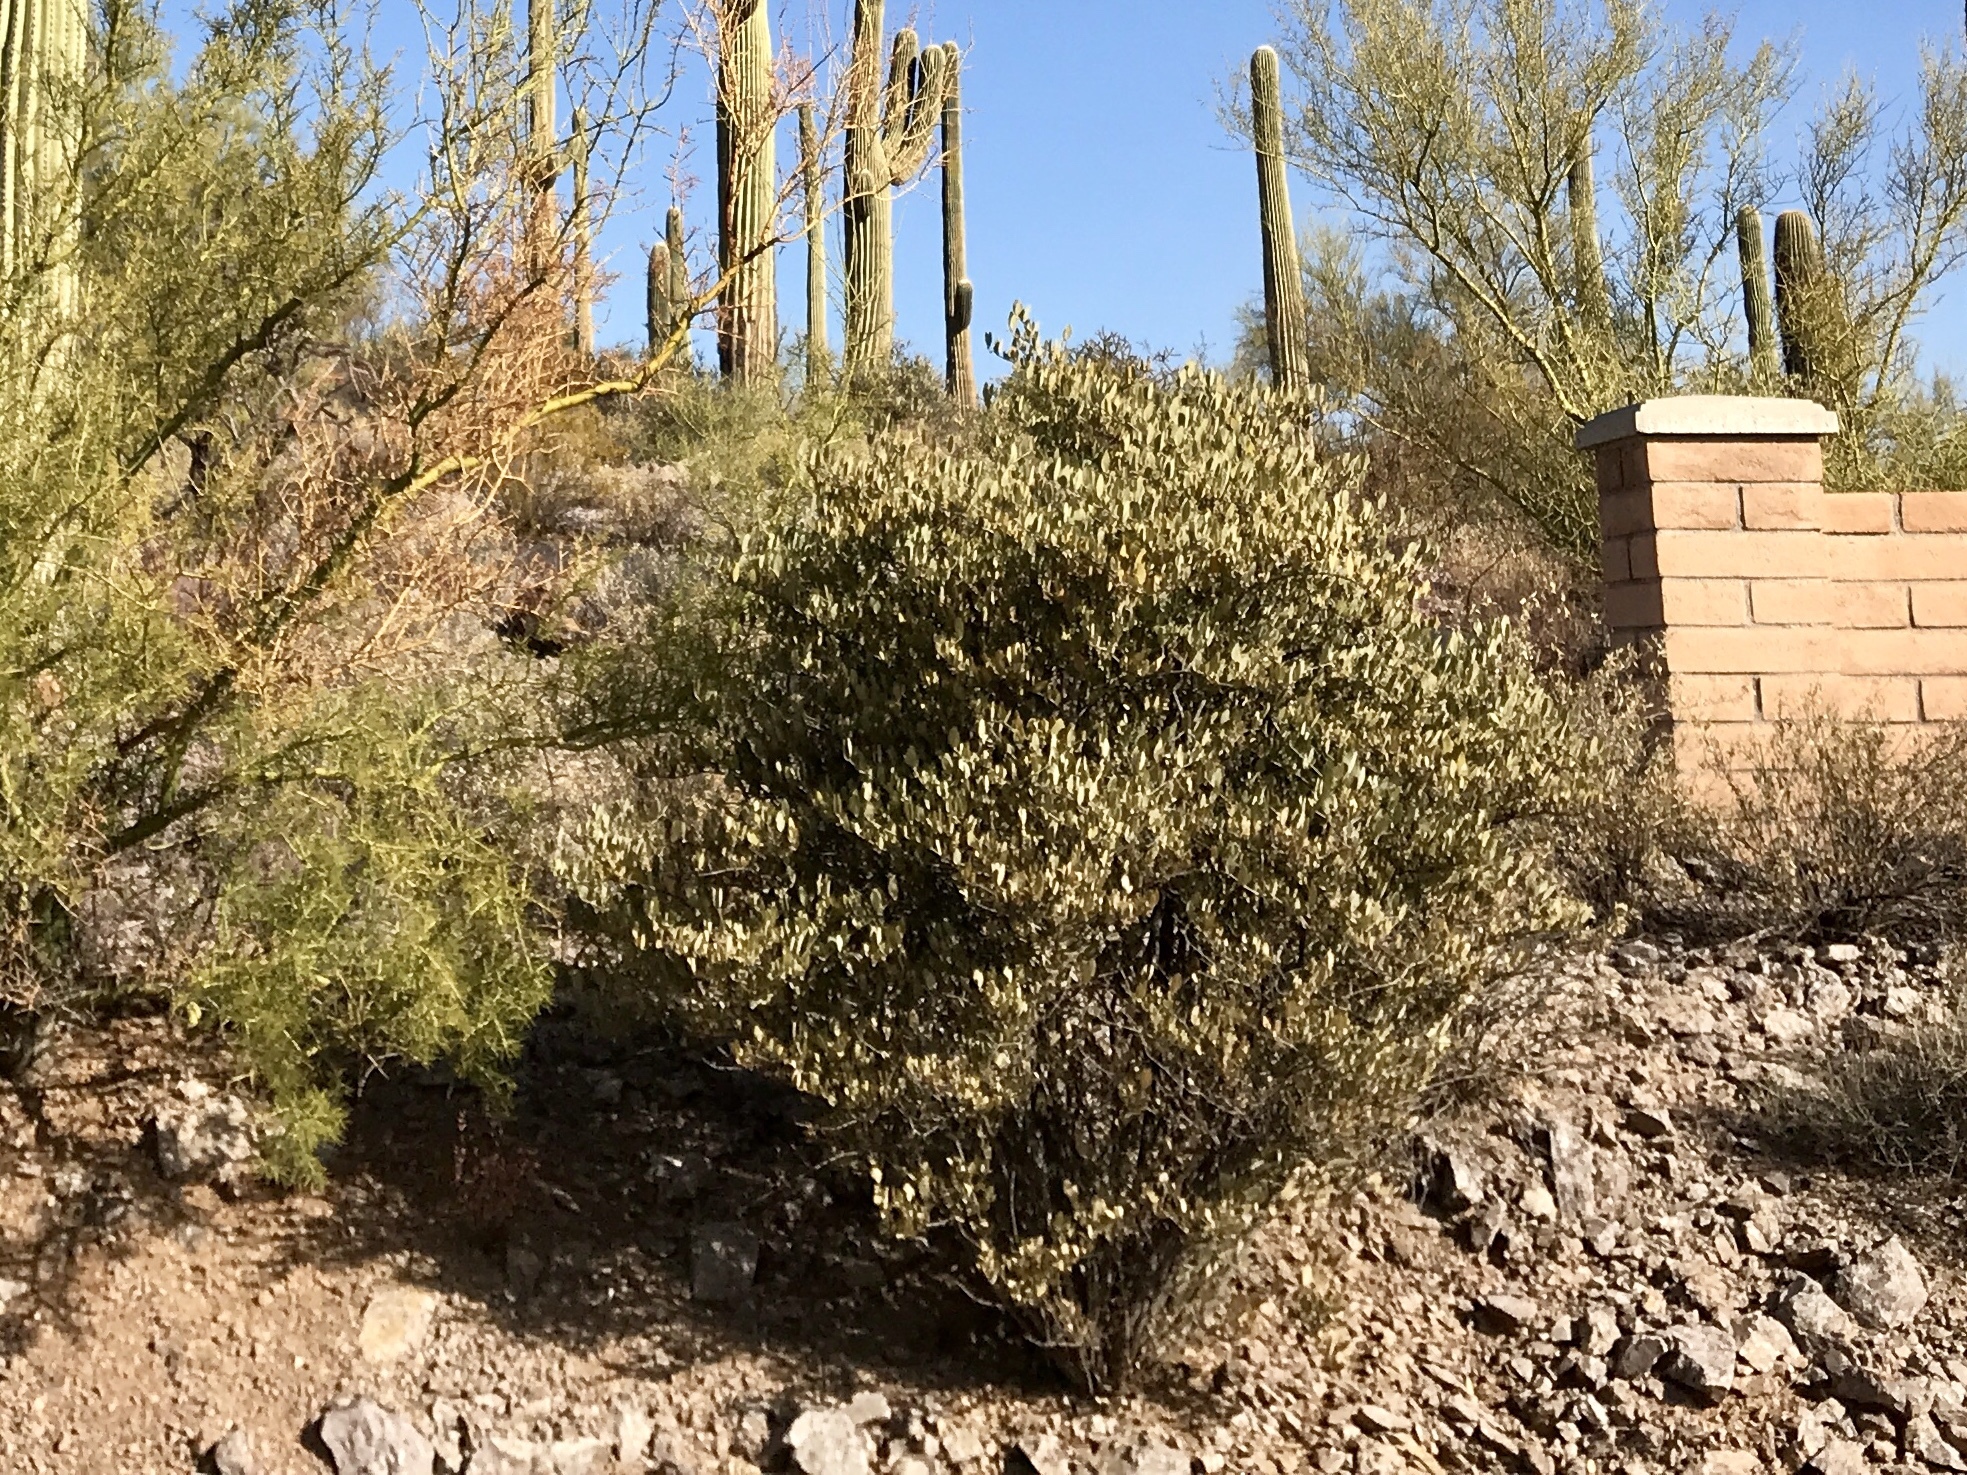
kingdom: Plantae
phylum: Tracheophyta
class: Magnoliopsida
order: Caryophyllales
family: Simmondsiaceae
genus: Simmondsia
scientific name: Simmondsia chinensis
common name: Jojoba
